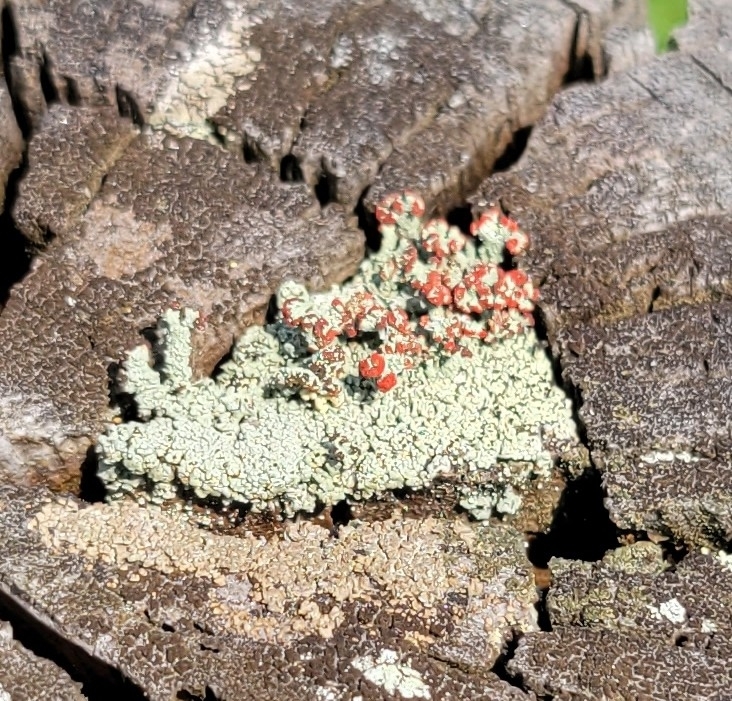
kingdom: Fungi
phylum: Ascomycota
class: Lecanoromycetes
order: Lecanorales
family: Cladoniaceae
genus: Cladonia
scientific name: Cladonia cristatella
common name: British soldier lichen
